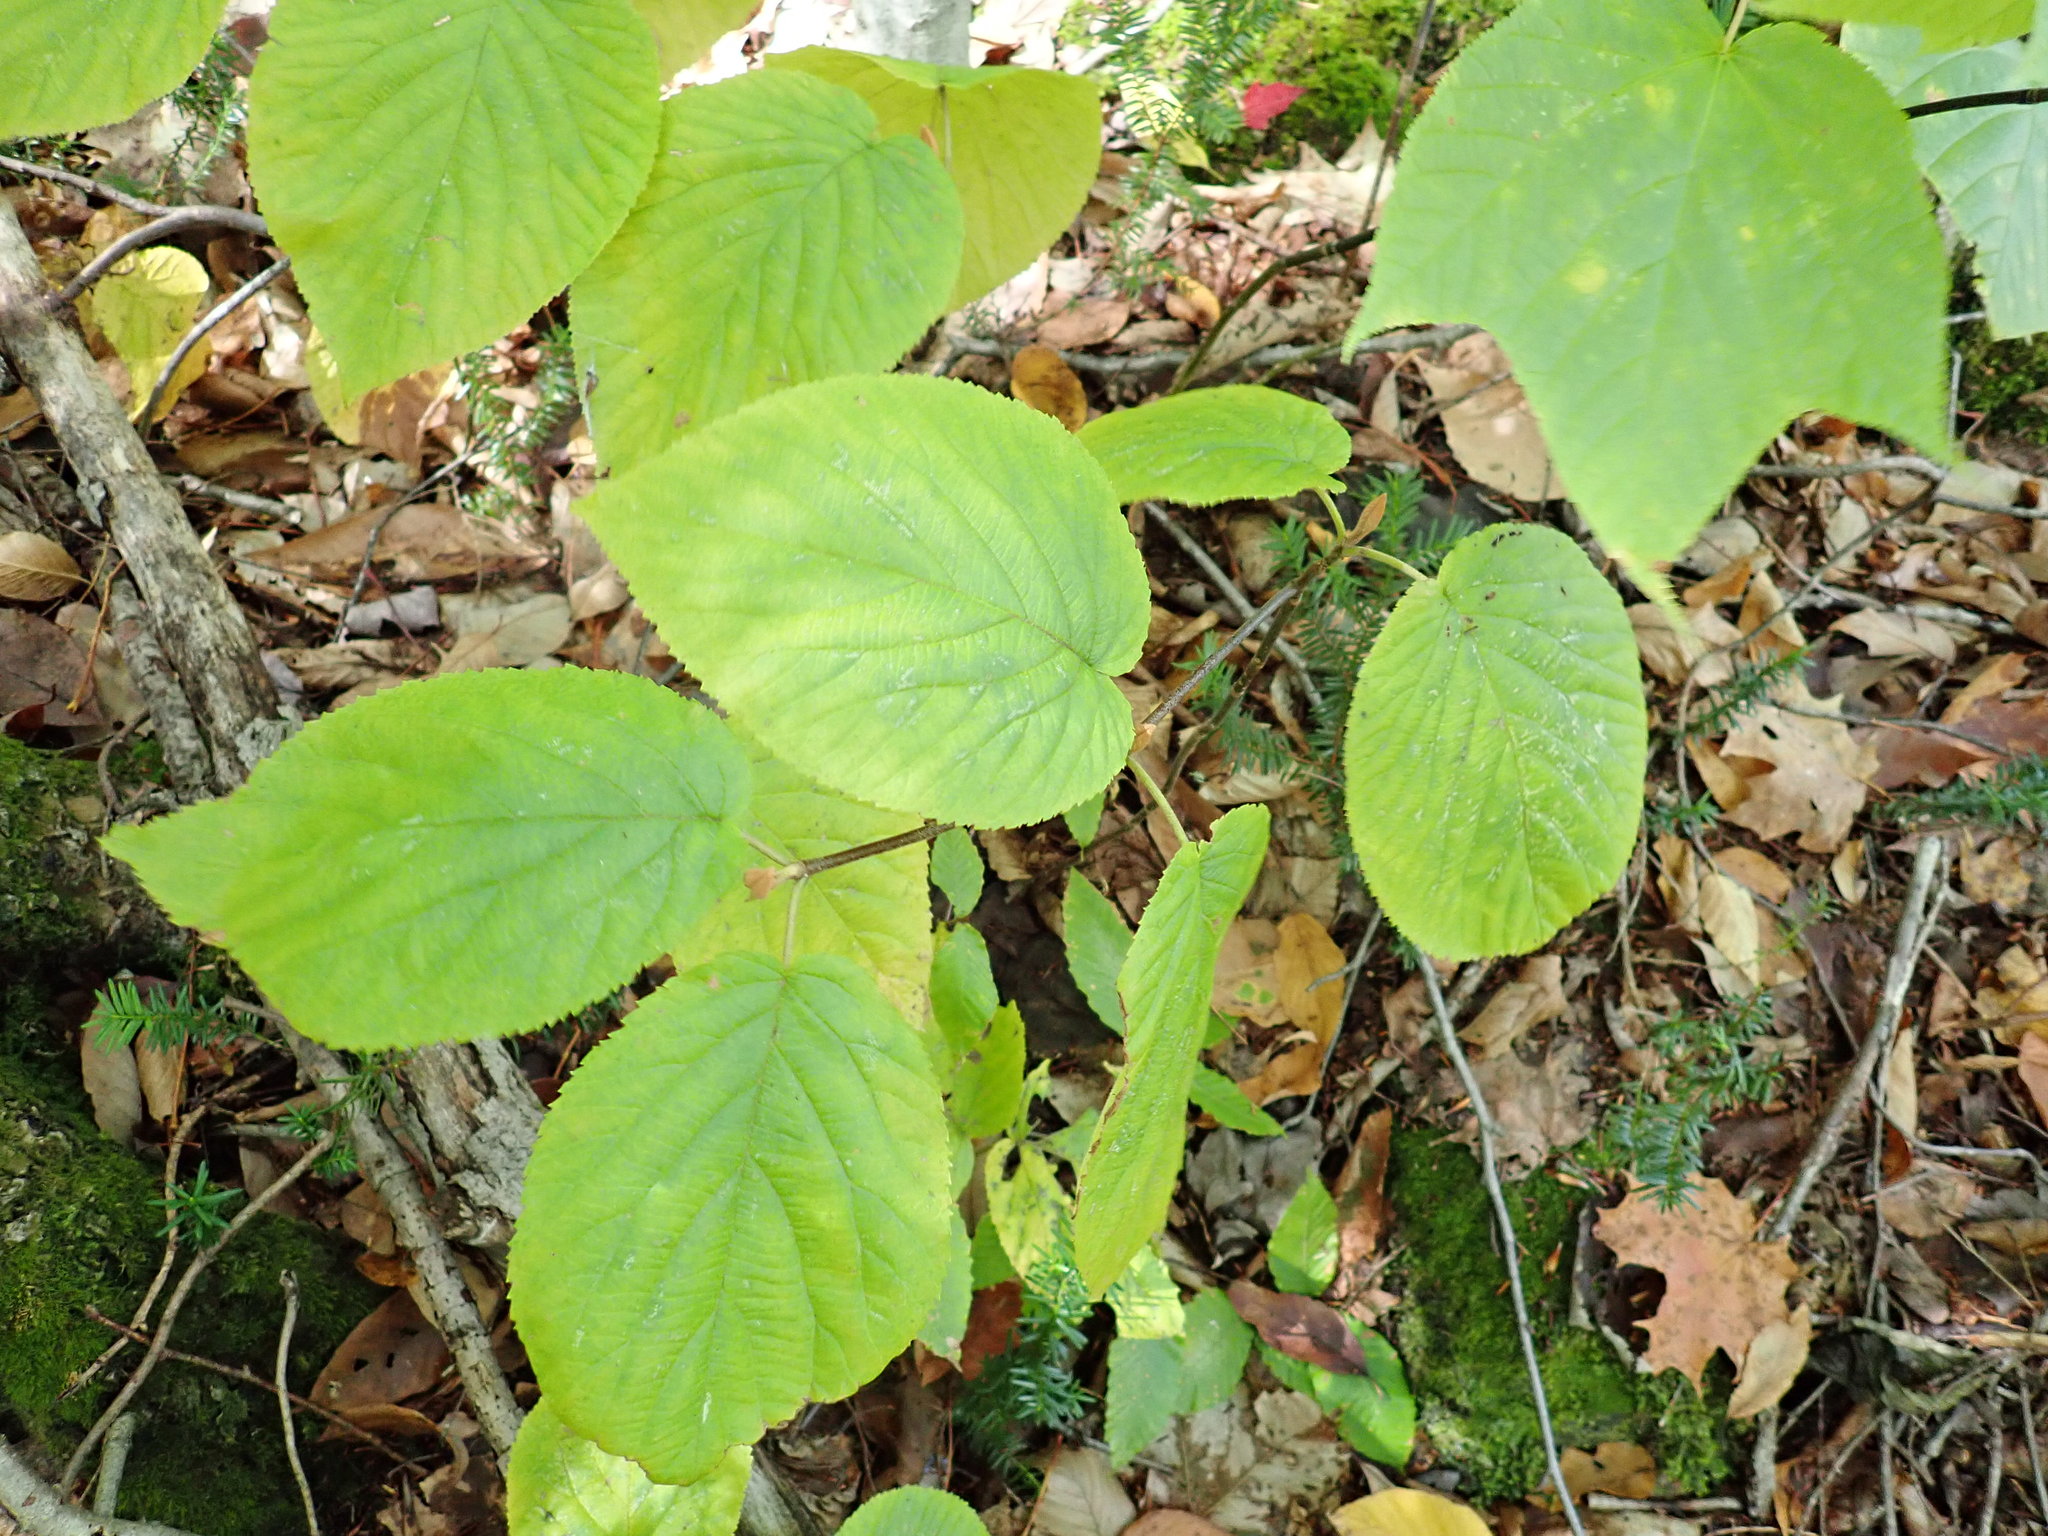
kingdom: Plantae
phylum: Tracheophyta
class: Magnoliopsida
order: Dipsacales
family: Viburnaceae
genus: Viburnum
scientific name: Viburnum lantanoides
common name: Hobblebush
